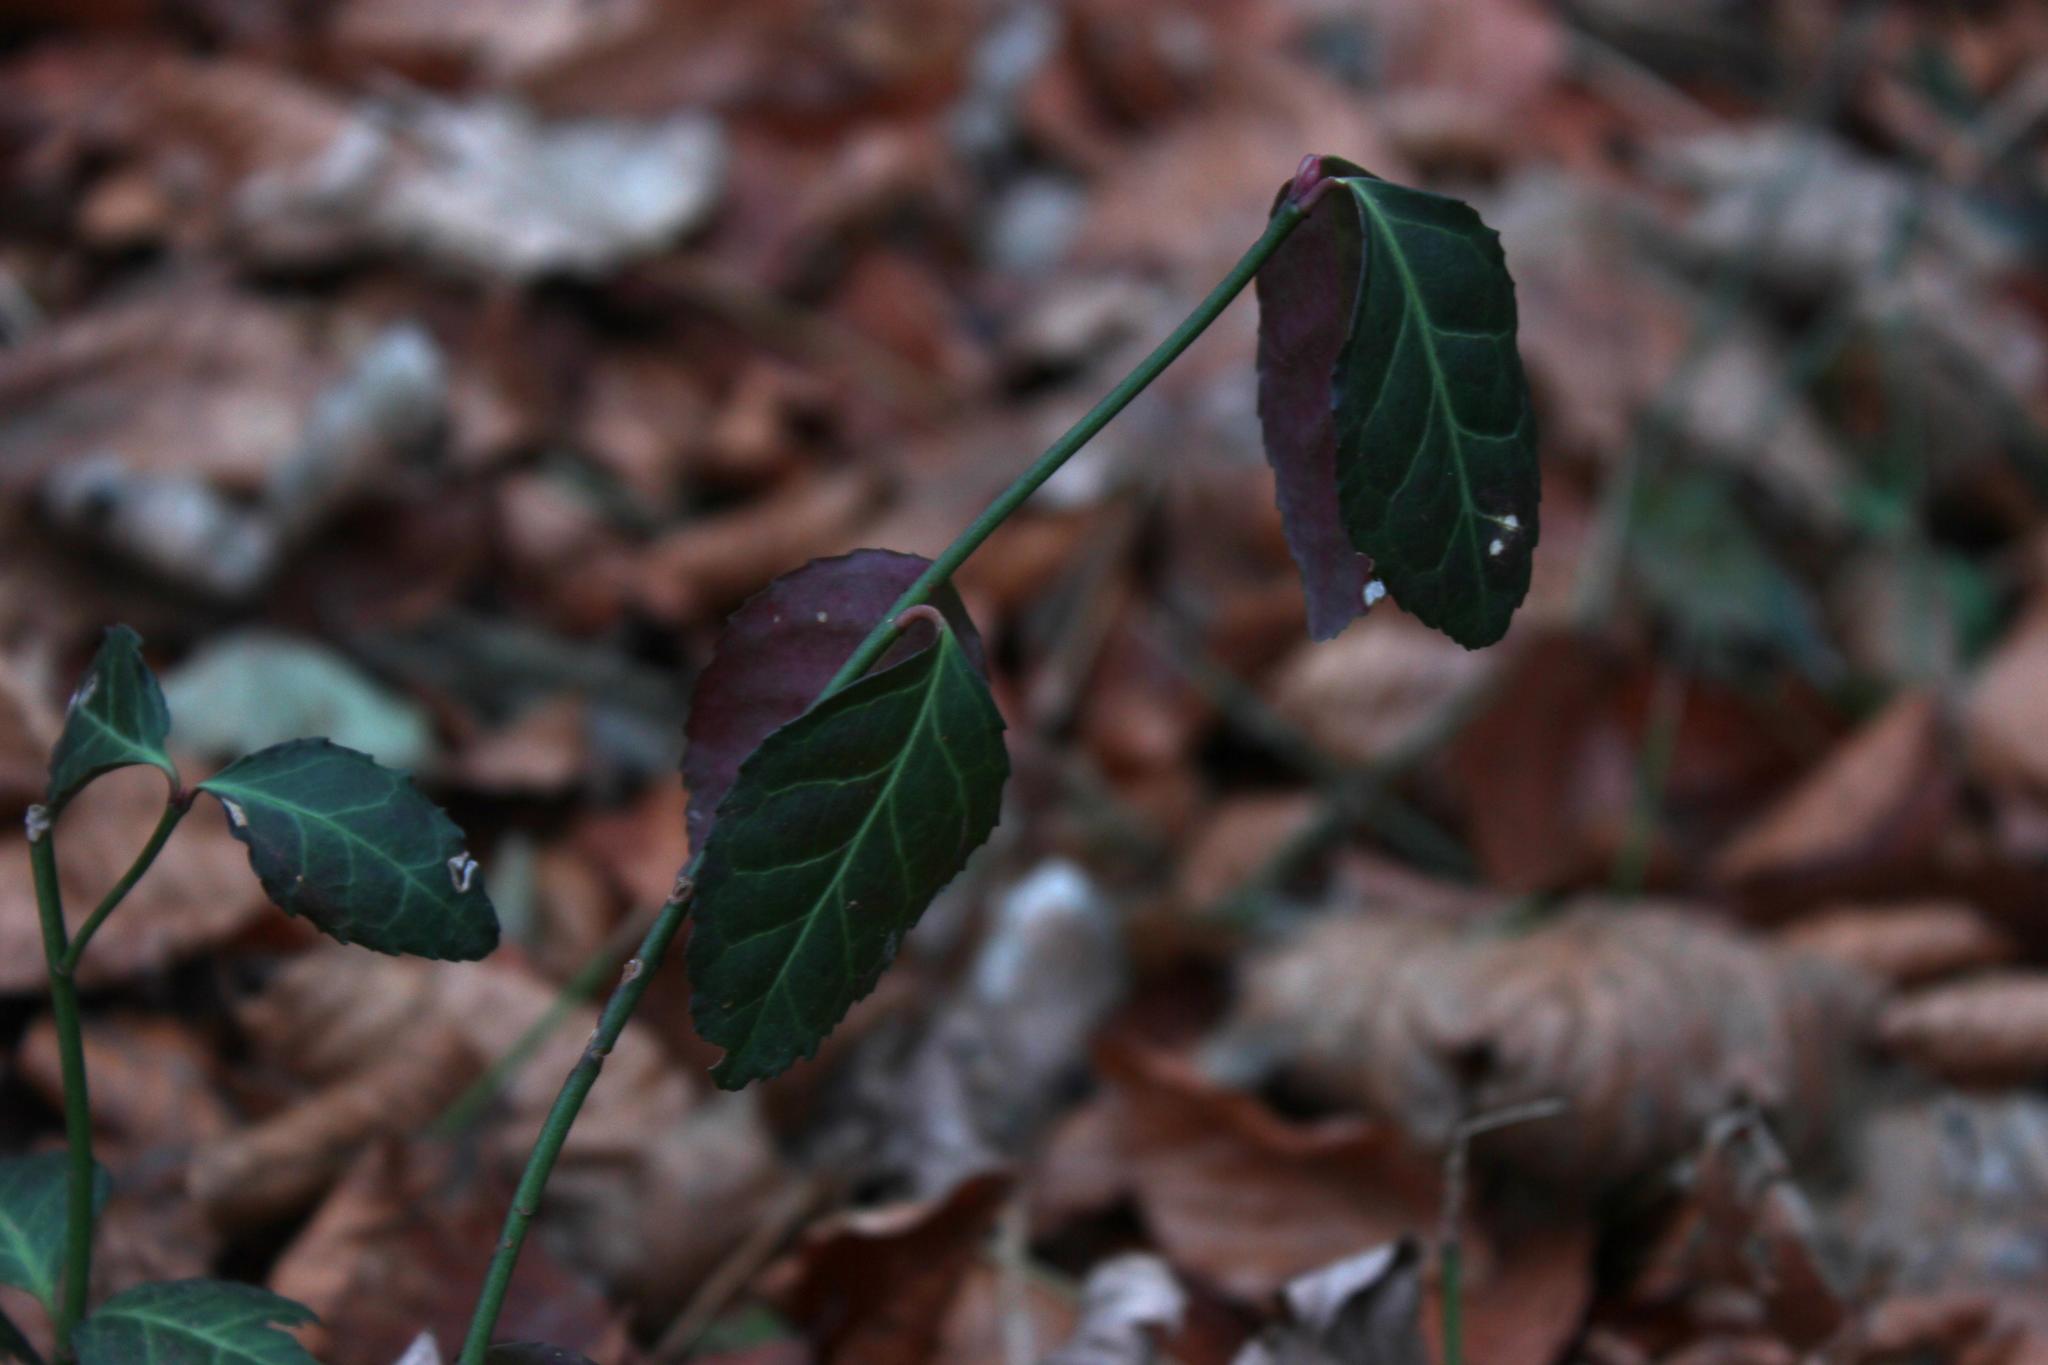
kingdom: Plantae
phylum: Tracheophyta
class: Magnoliopsida
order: Celastrales
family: Celastraceae
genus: Euonymus
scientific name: Euonymus europaeus
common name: Spindle
